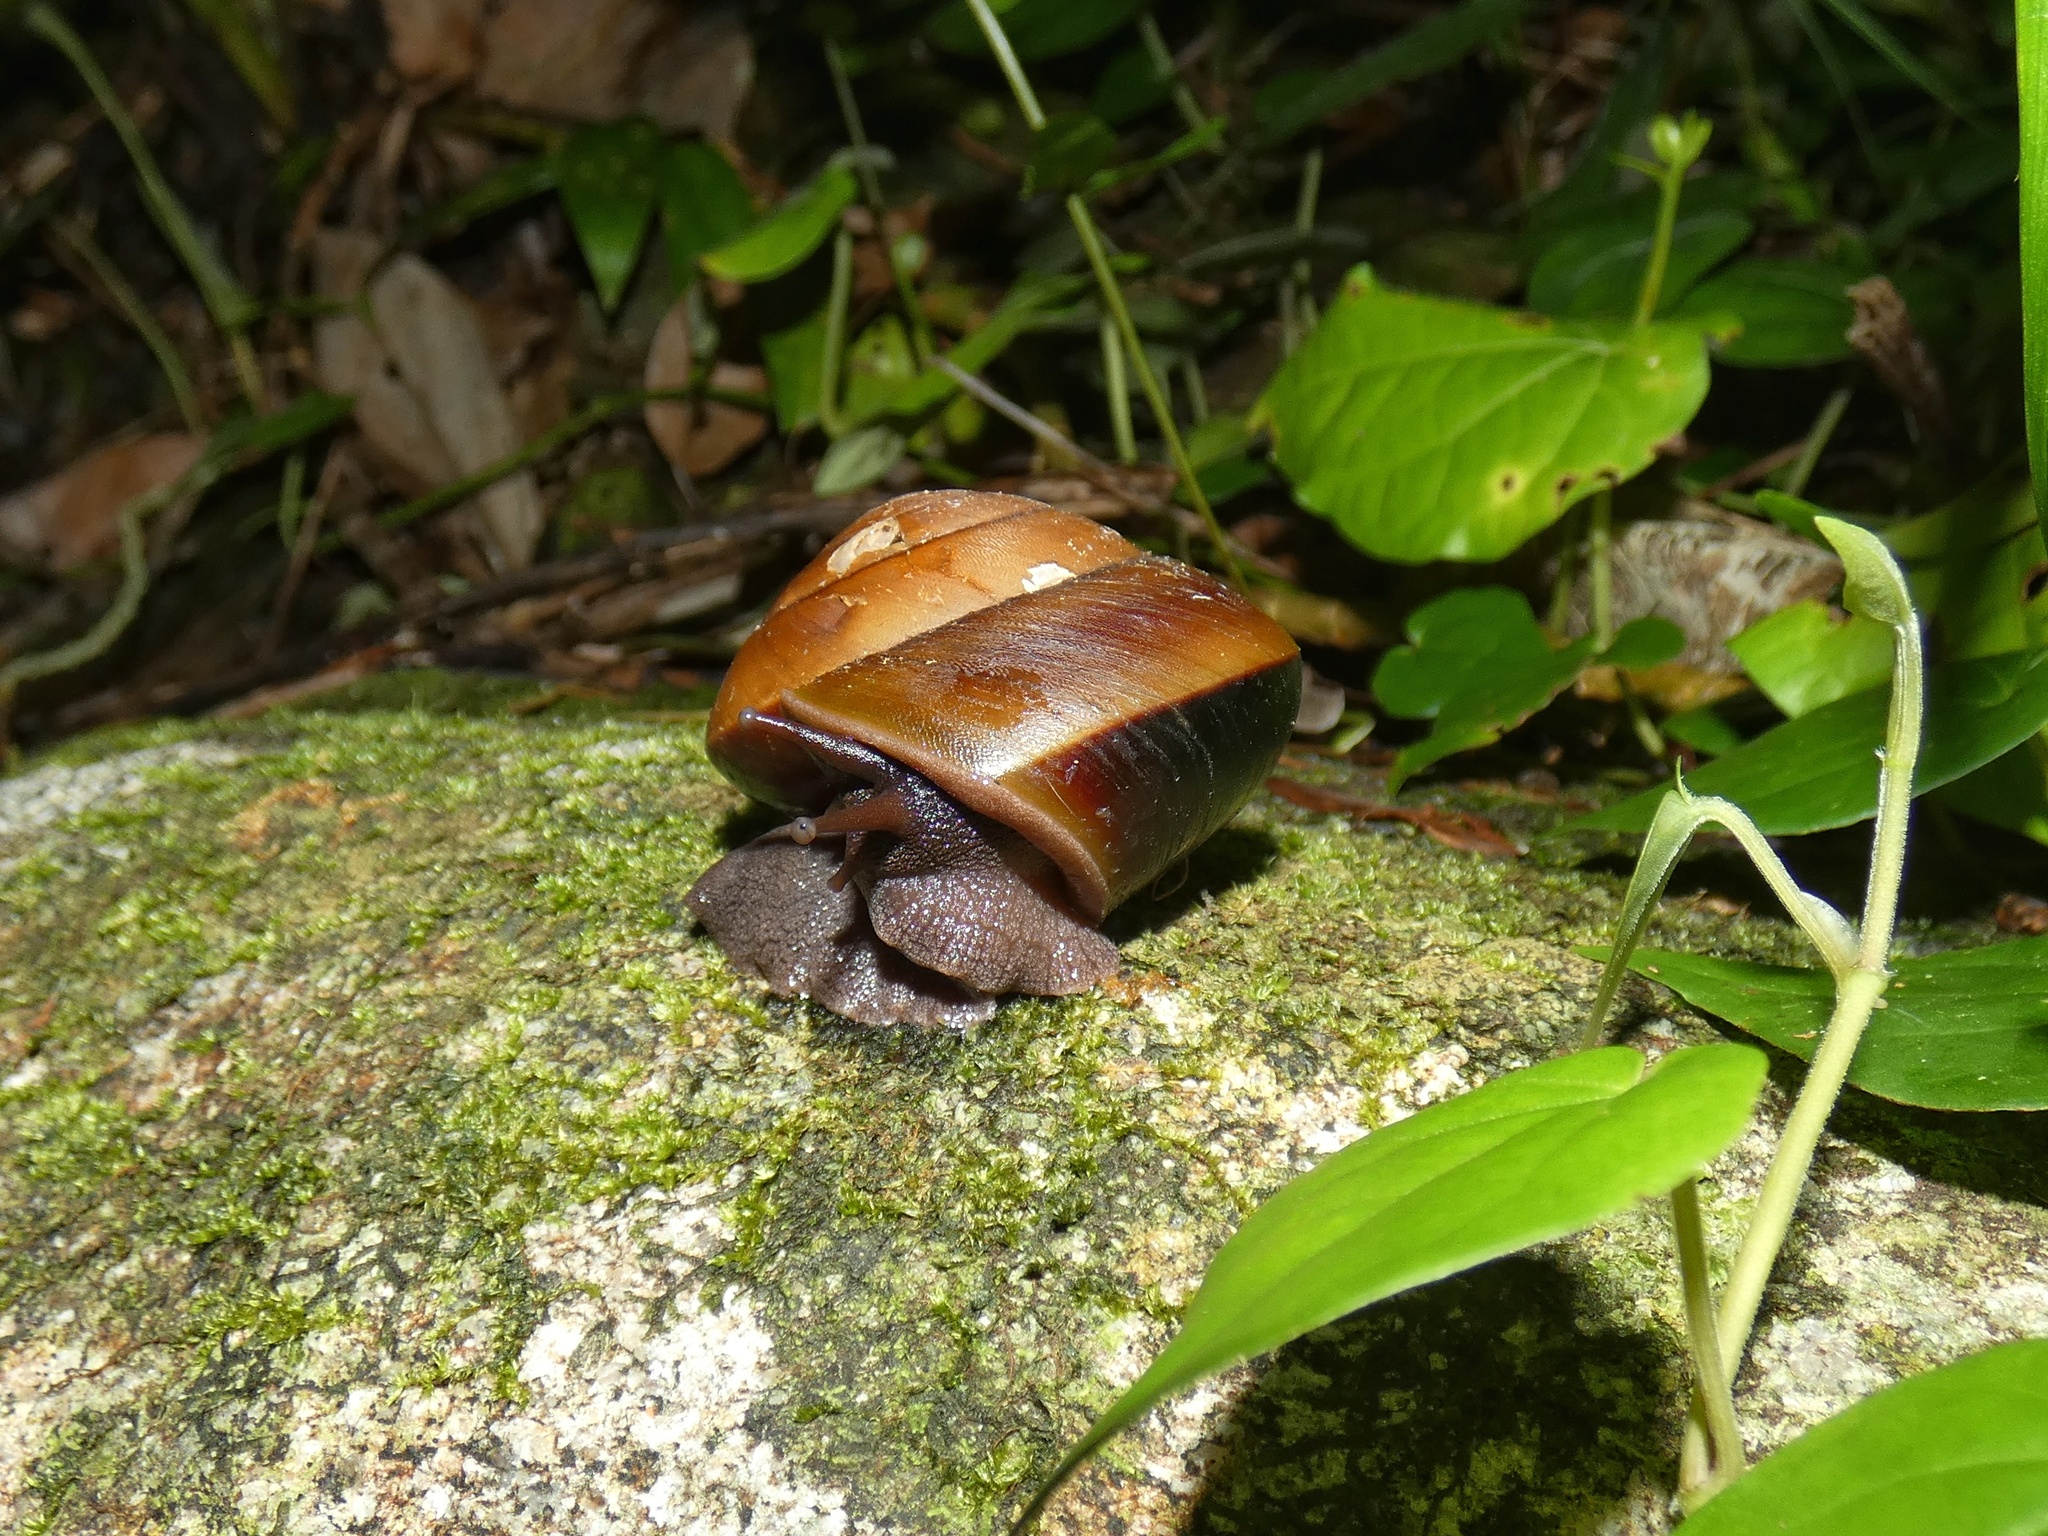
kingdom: Animalia
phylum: Mollusca
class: Gastropoda
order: Stylommatophora
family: Camaenidae
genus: Hadra
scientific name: Hadra bipartita
